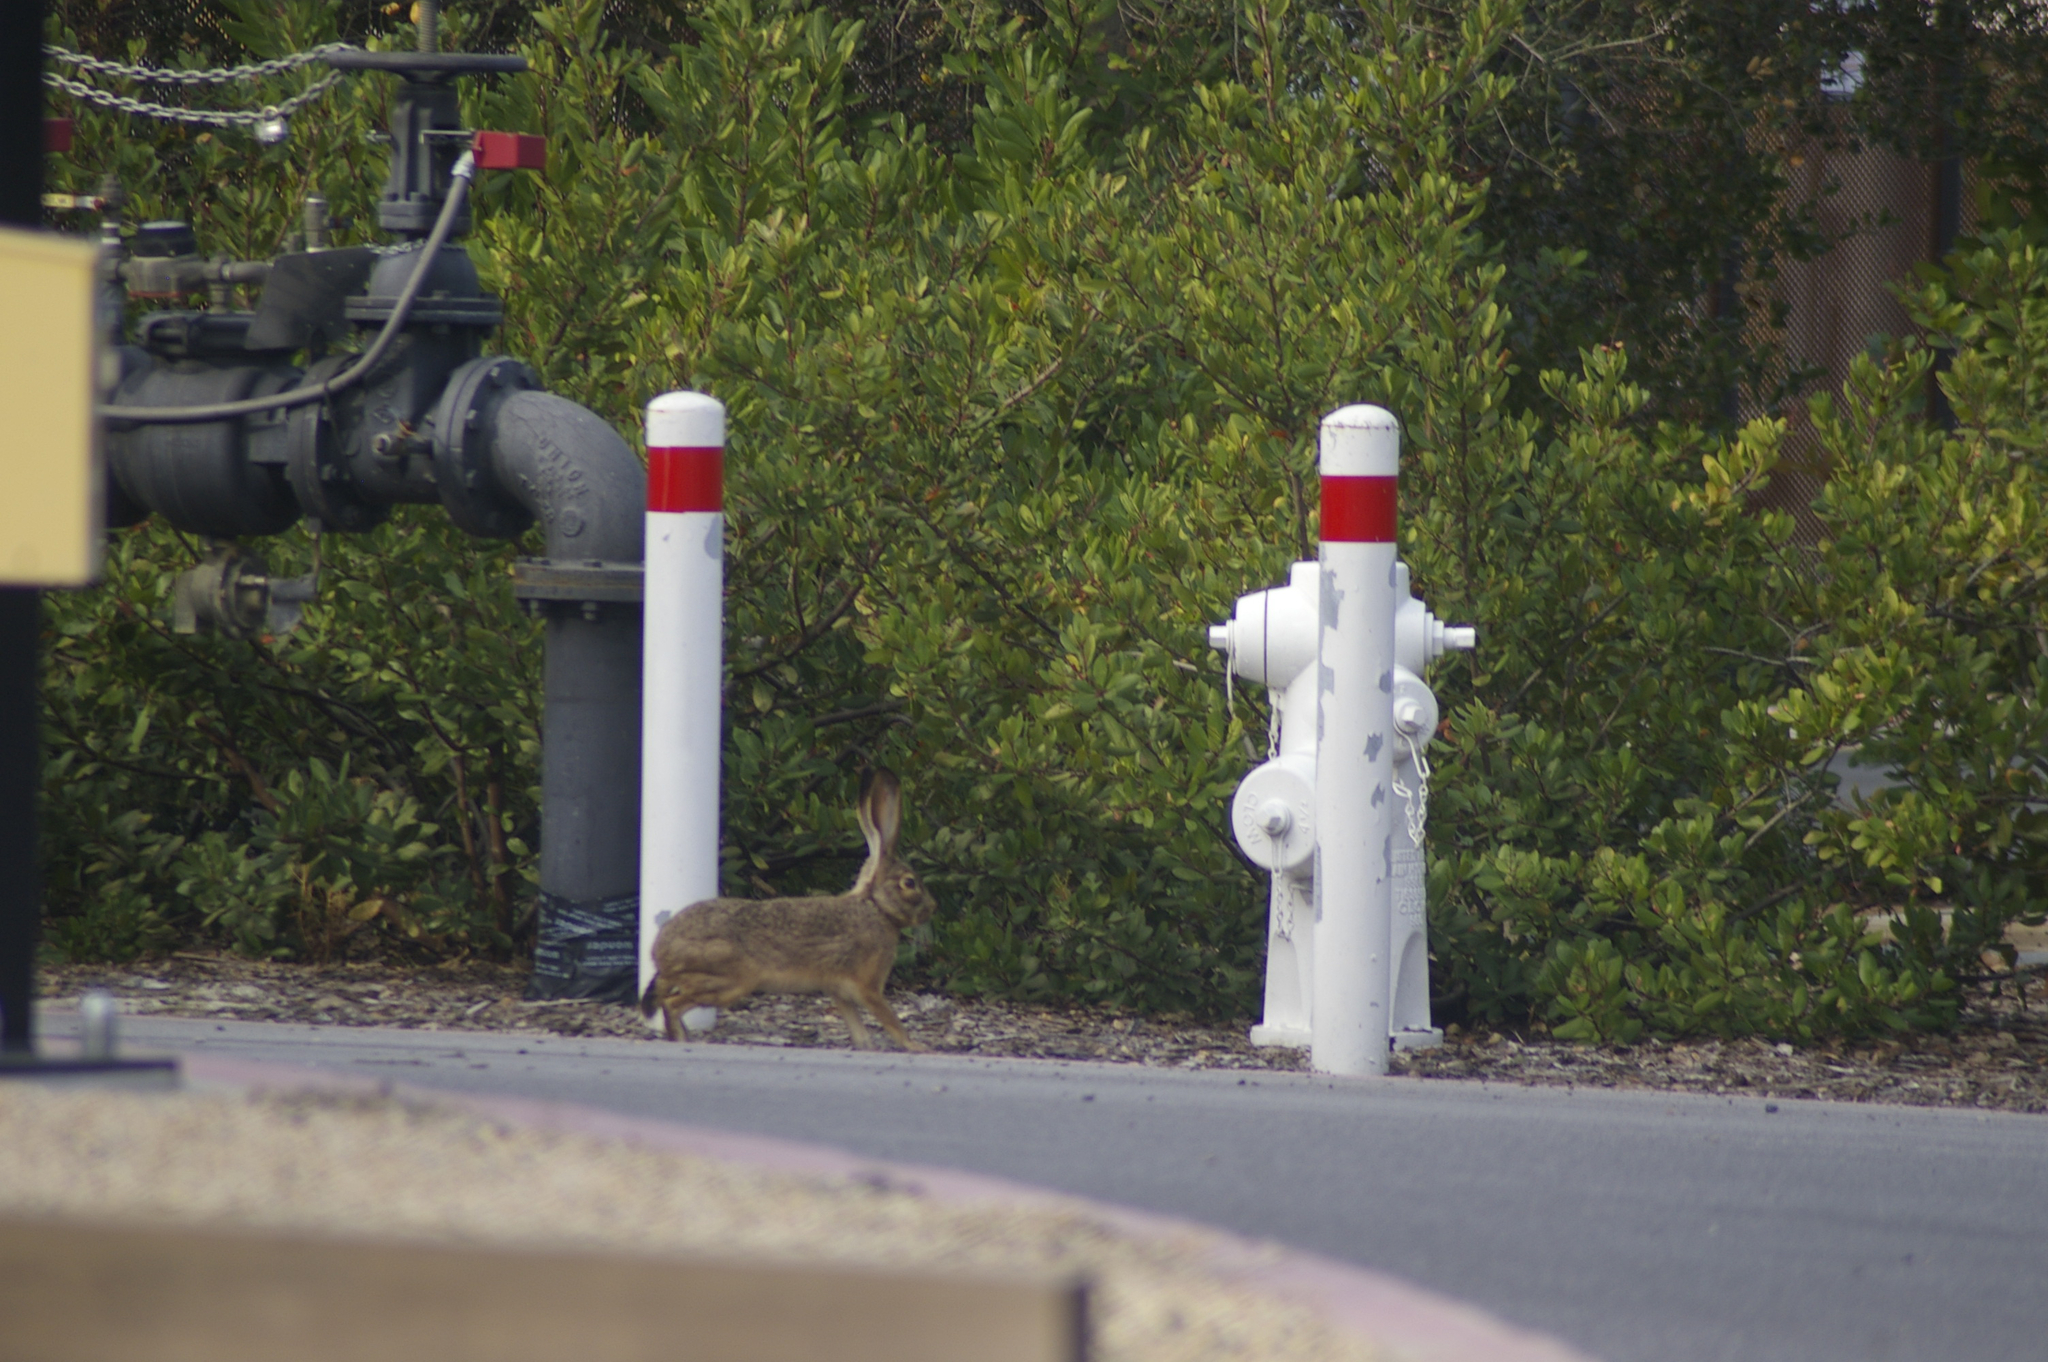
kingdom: Animalia
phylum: Chordata
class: Mammalia
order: Lagomorpha
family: Leporidae
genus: Lepus
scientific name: Lepus californicus
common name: Black-tailed jackrabbit
